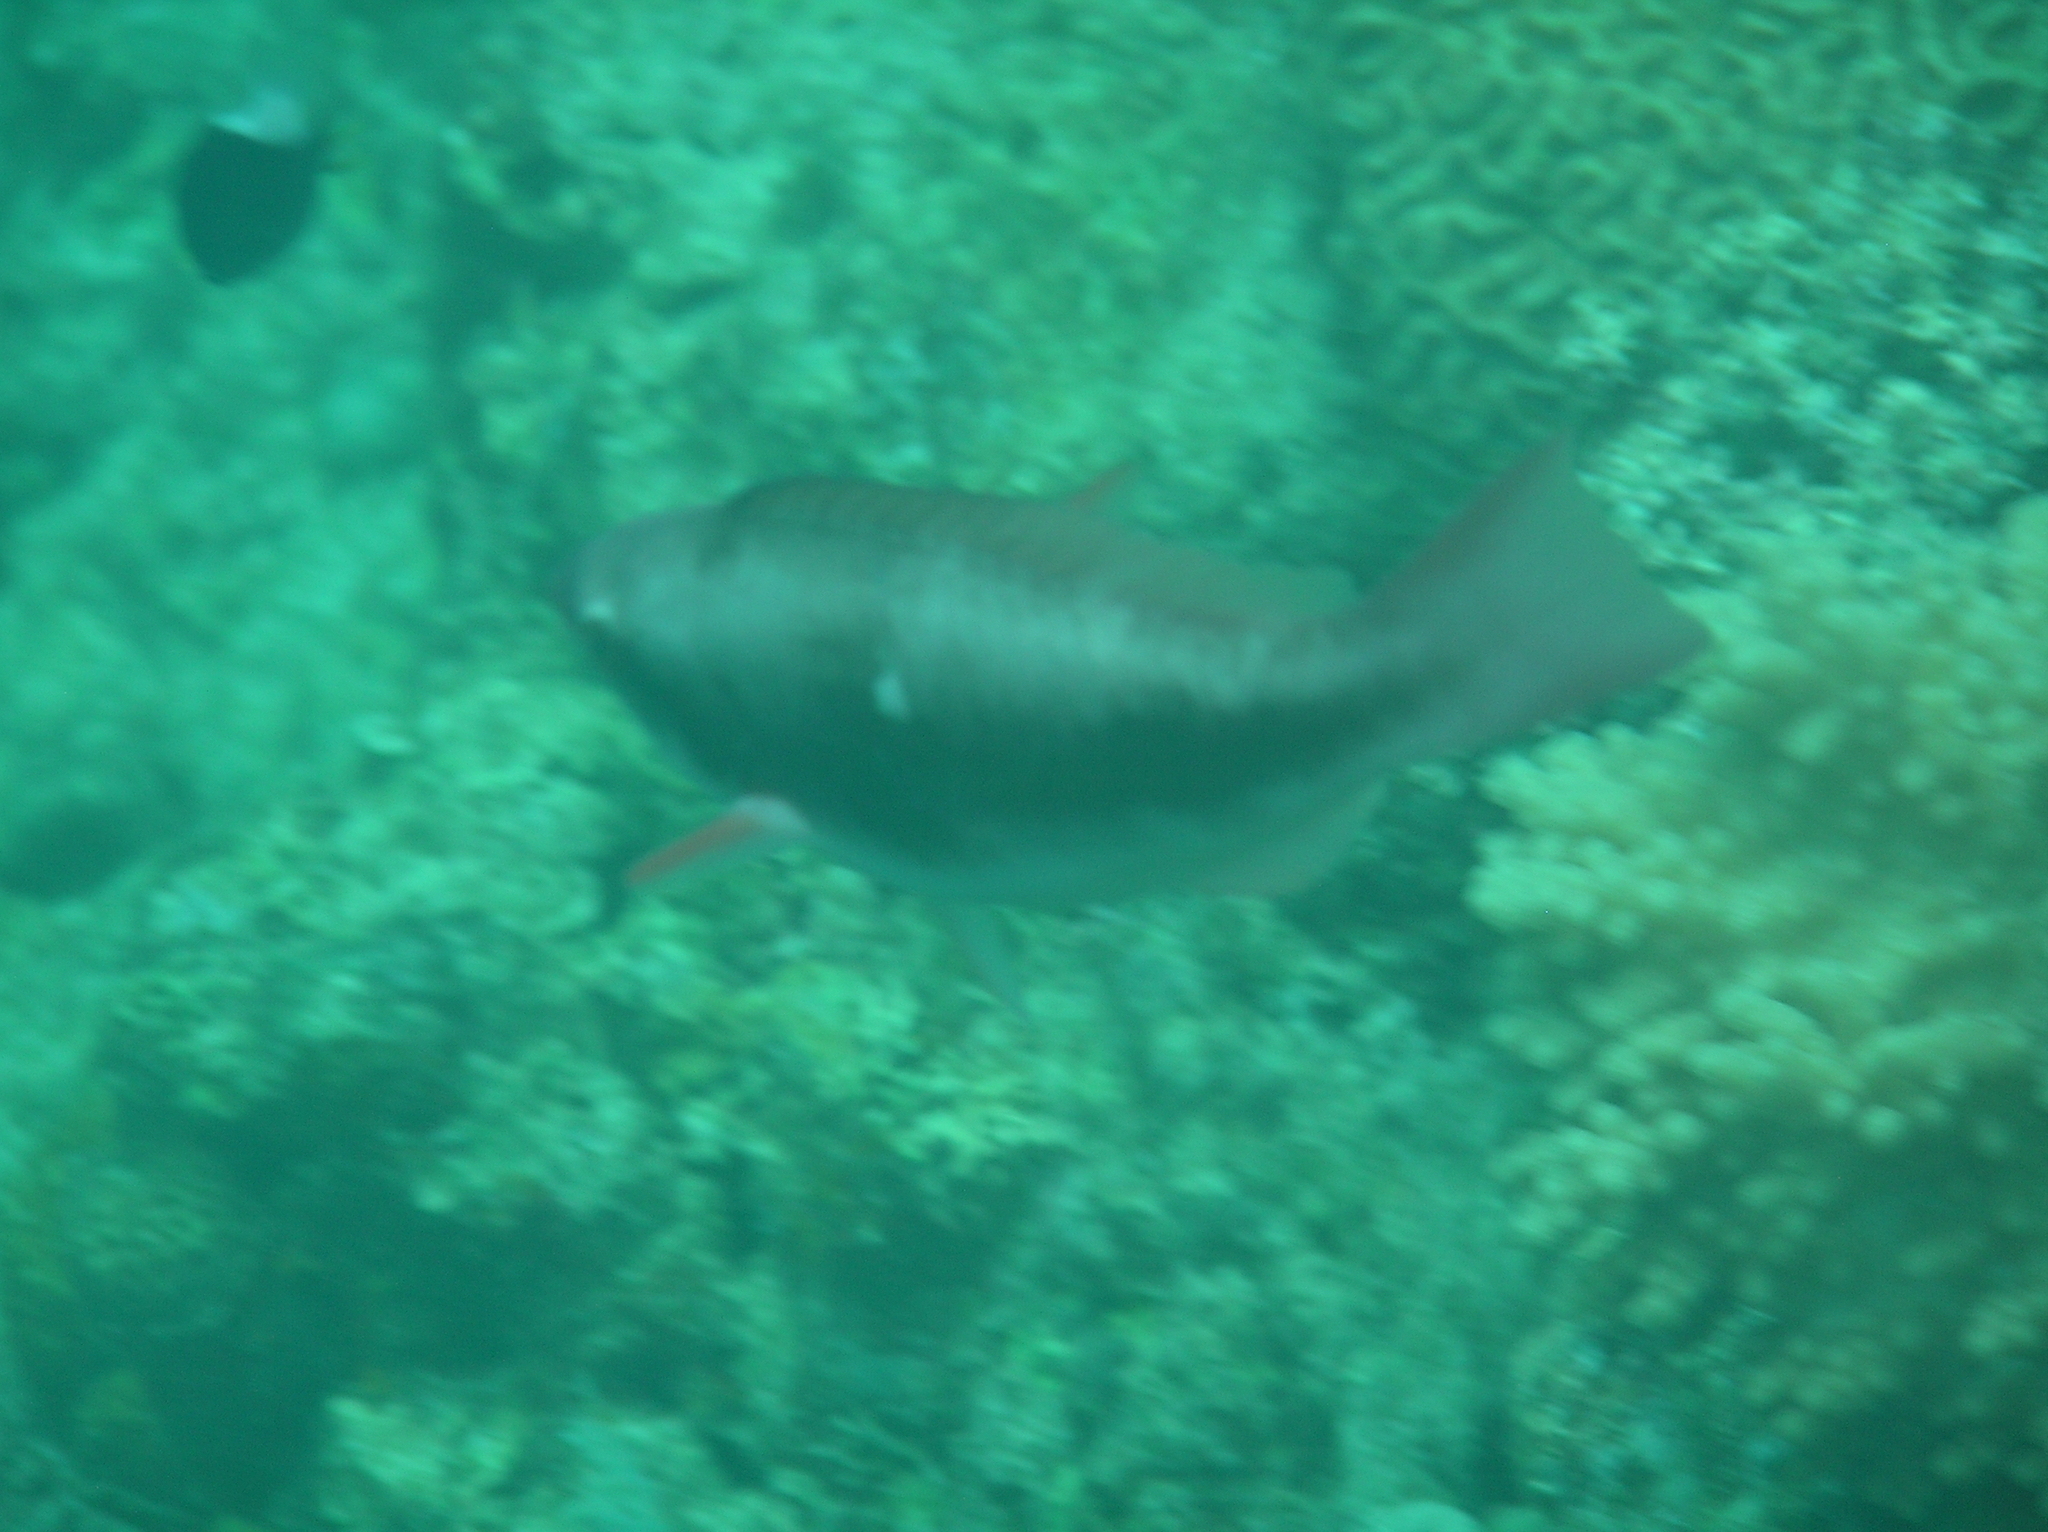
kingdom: Animalia
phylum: Chordata
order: Perciformes
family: Scaridae
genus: Scarus
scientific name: Scarus forsteni
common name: Forsten's parrotfish
